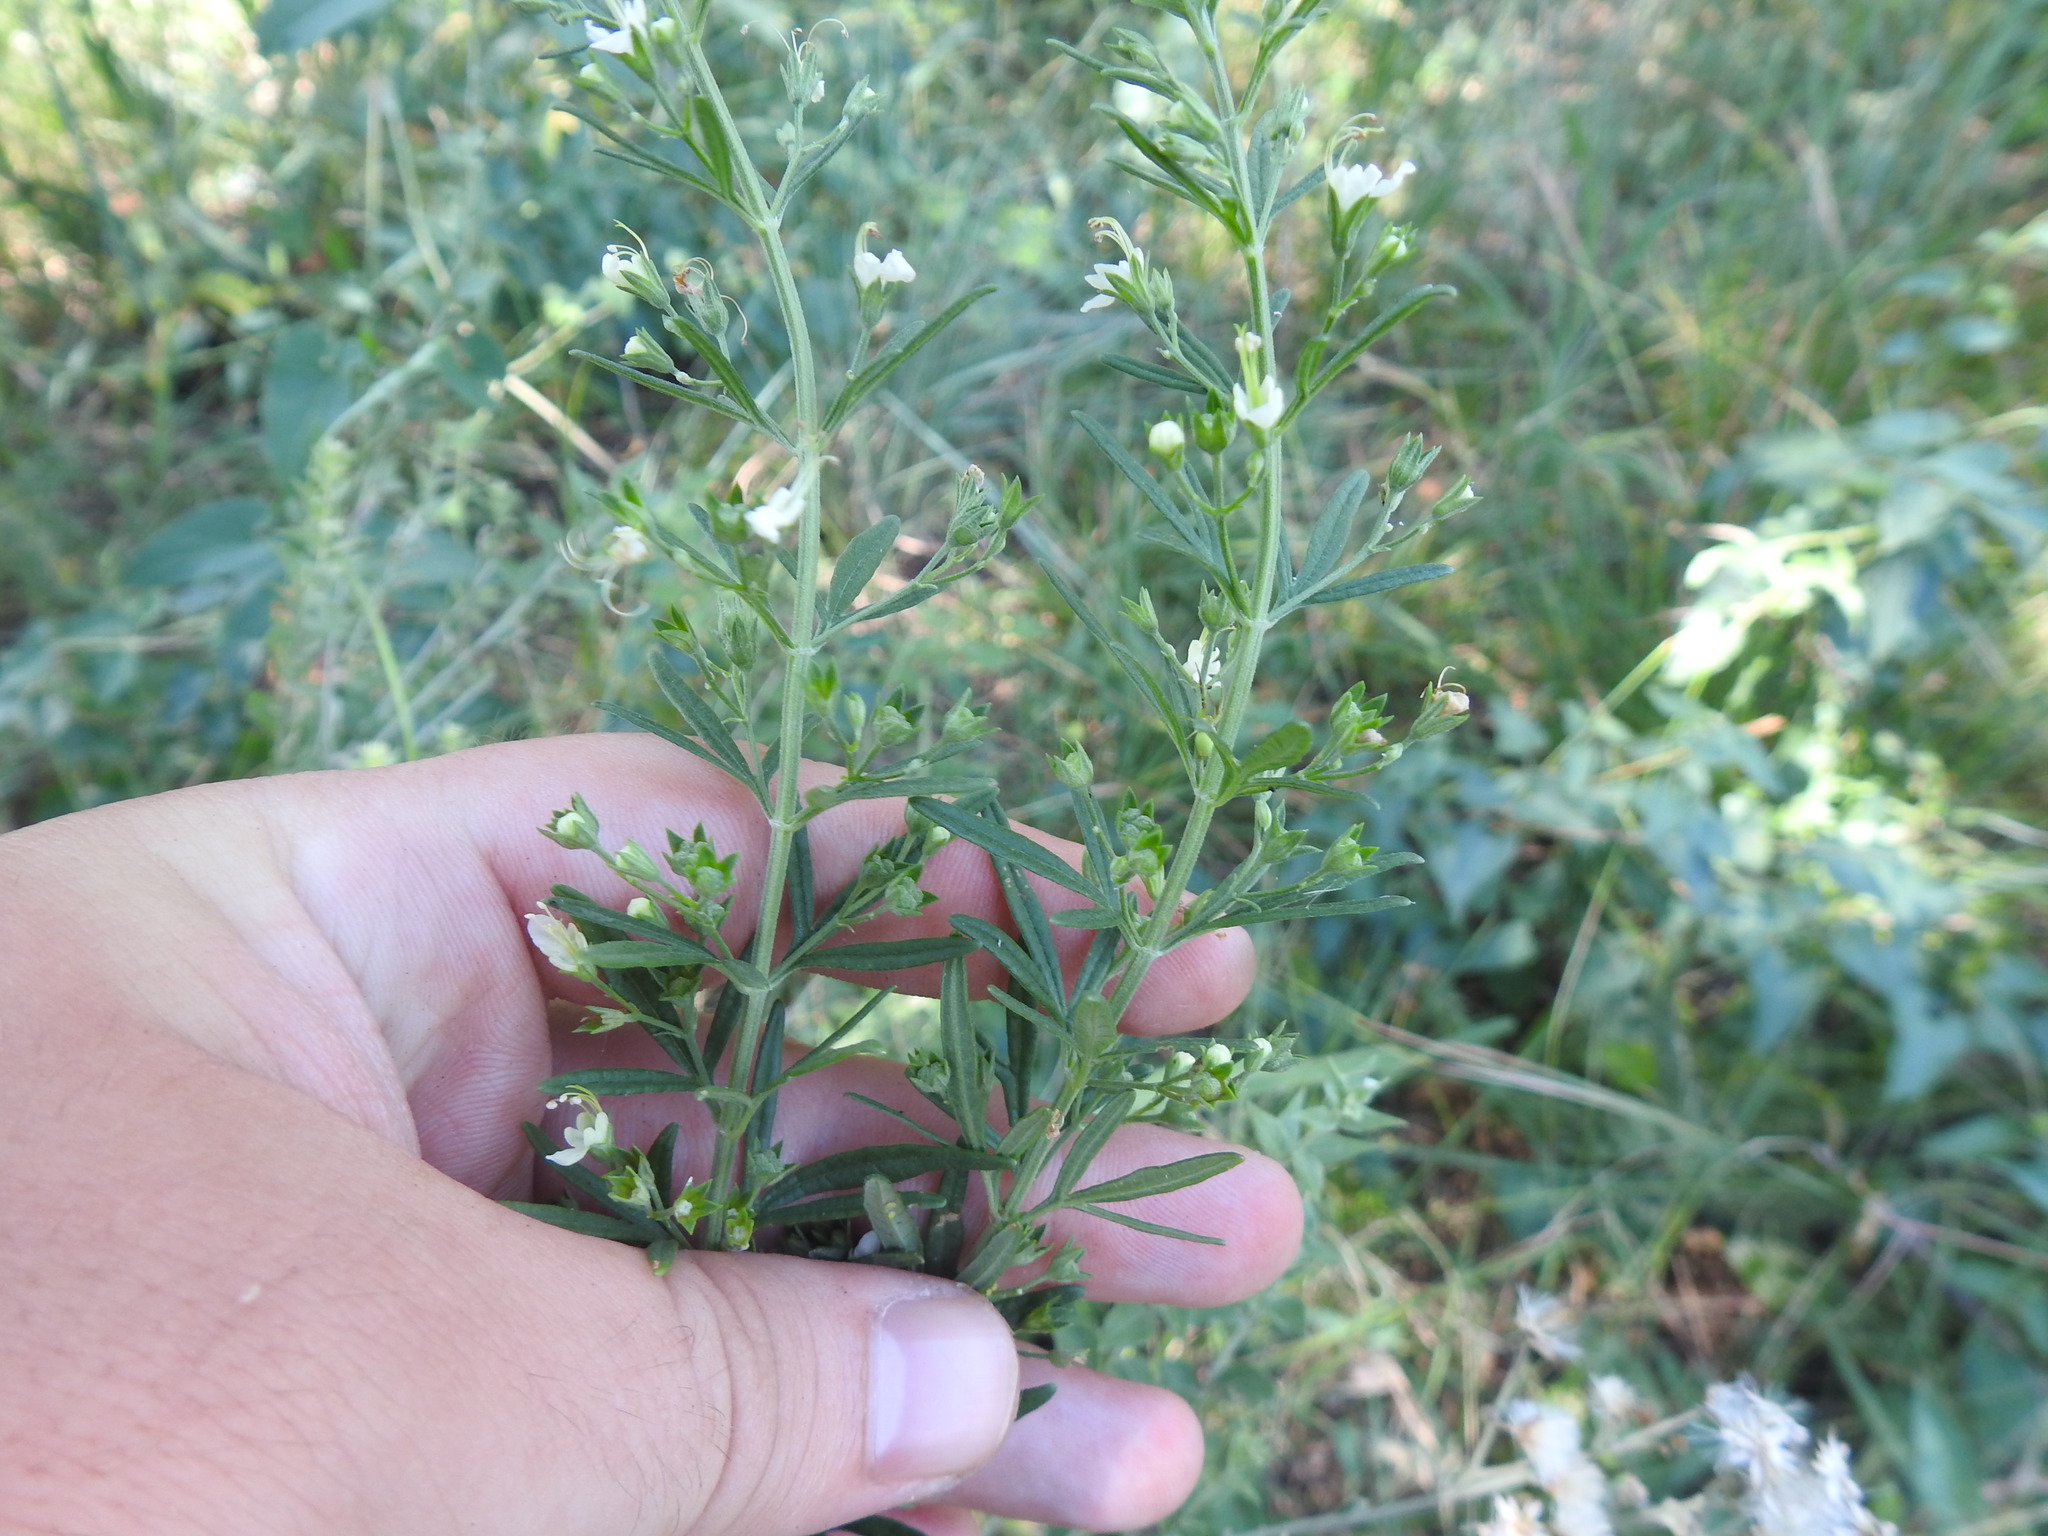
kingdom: Plantae
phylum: Tracheophyta
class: Magnoliopsida
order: Lamiales
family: Lamiaceae
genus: Teucrium
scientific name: Teucrium trifidum
